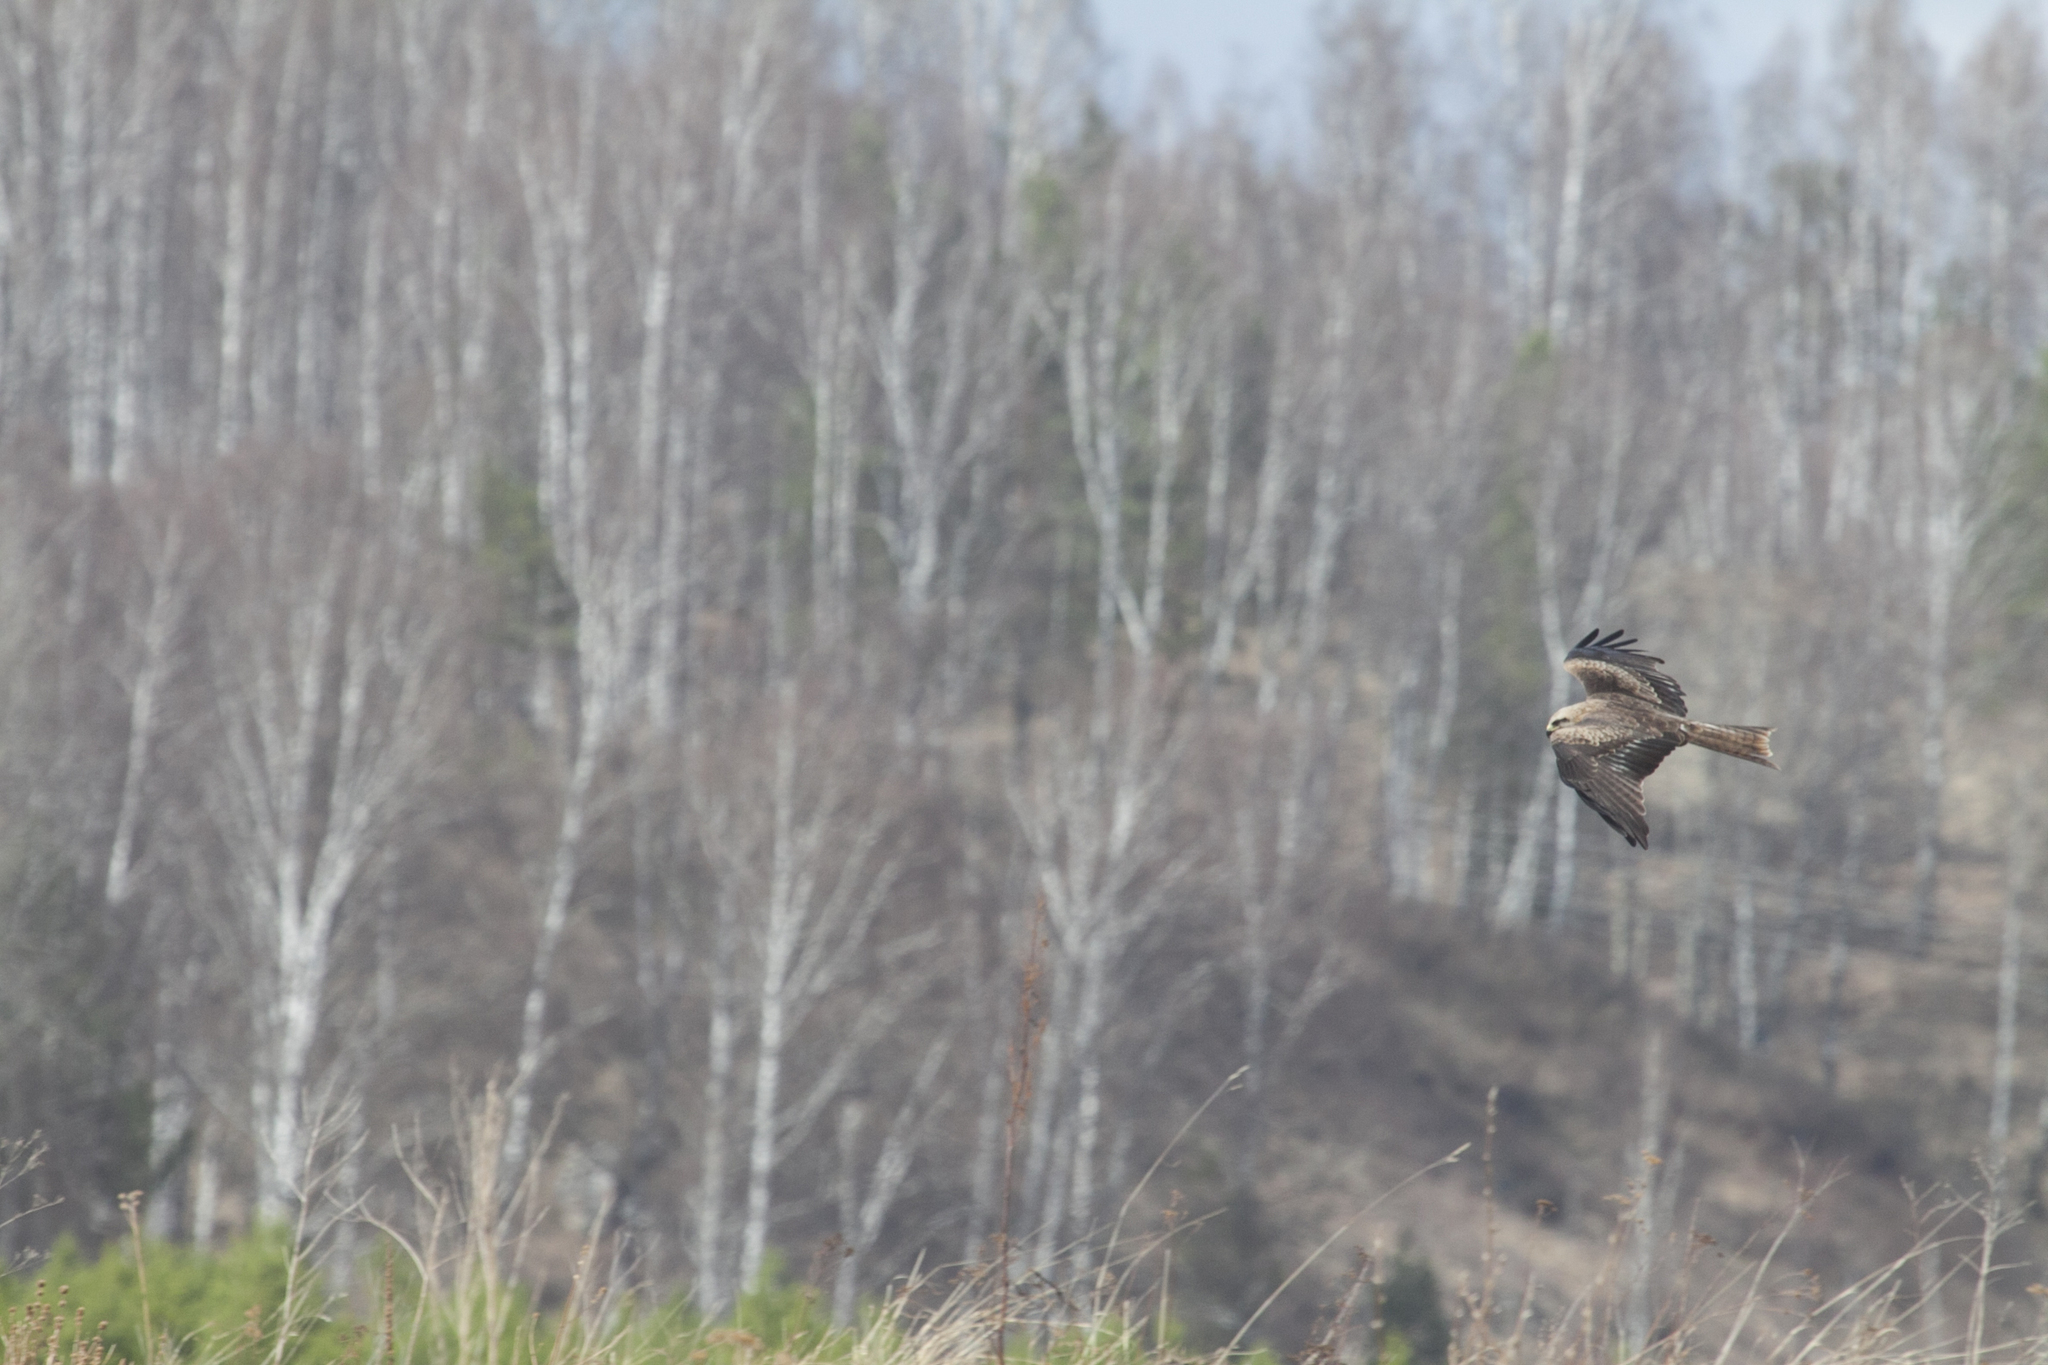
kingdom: Animalia
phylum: Chordata
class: Aves
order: Accipitriformes
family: Accipitridae
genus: Milvus
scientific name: Milvus migrans
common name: Black kite
